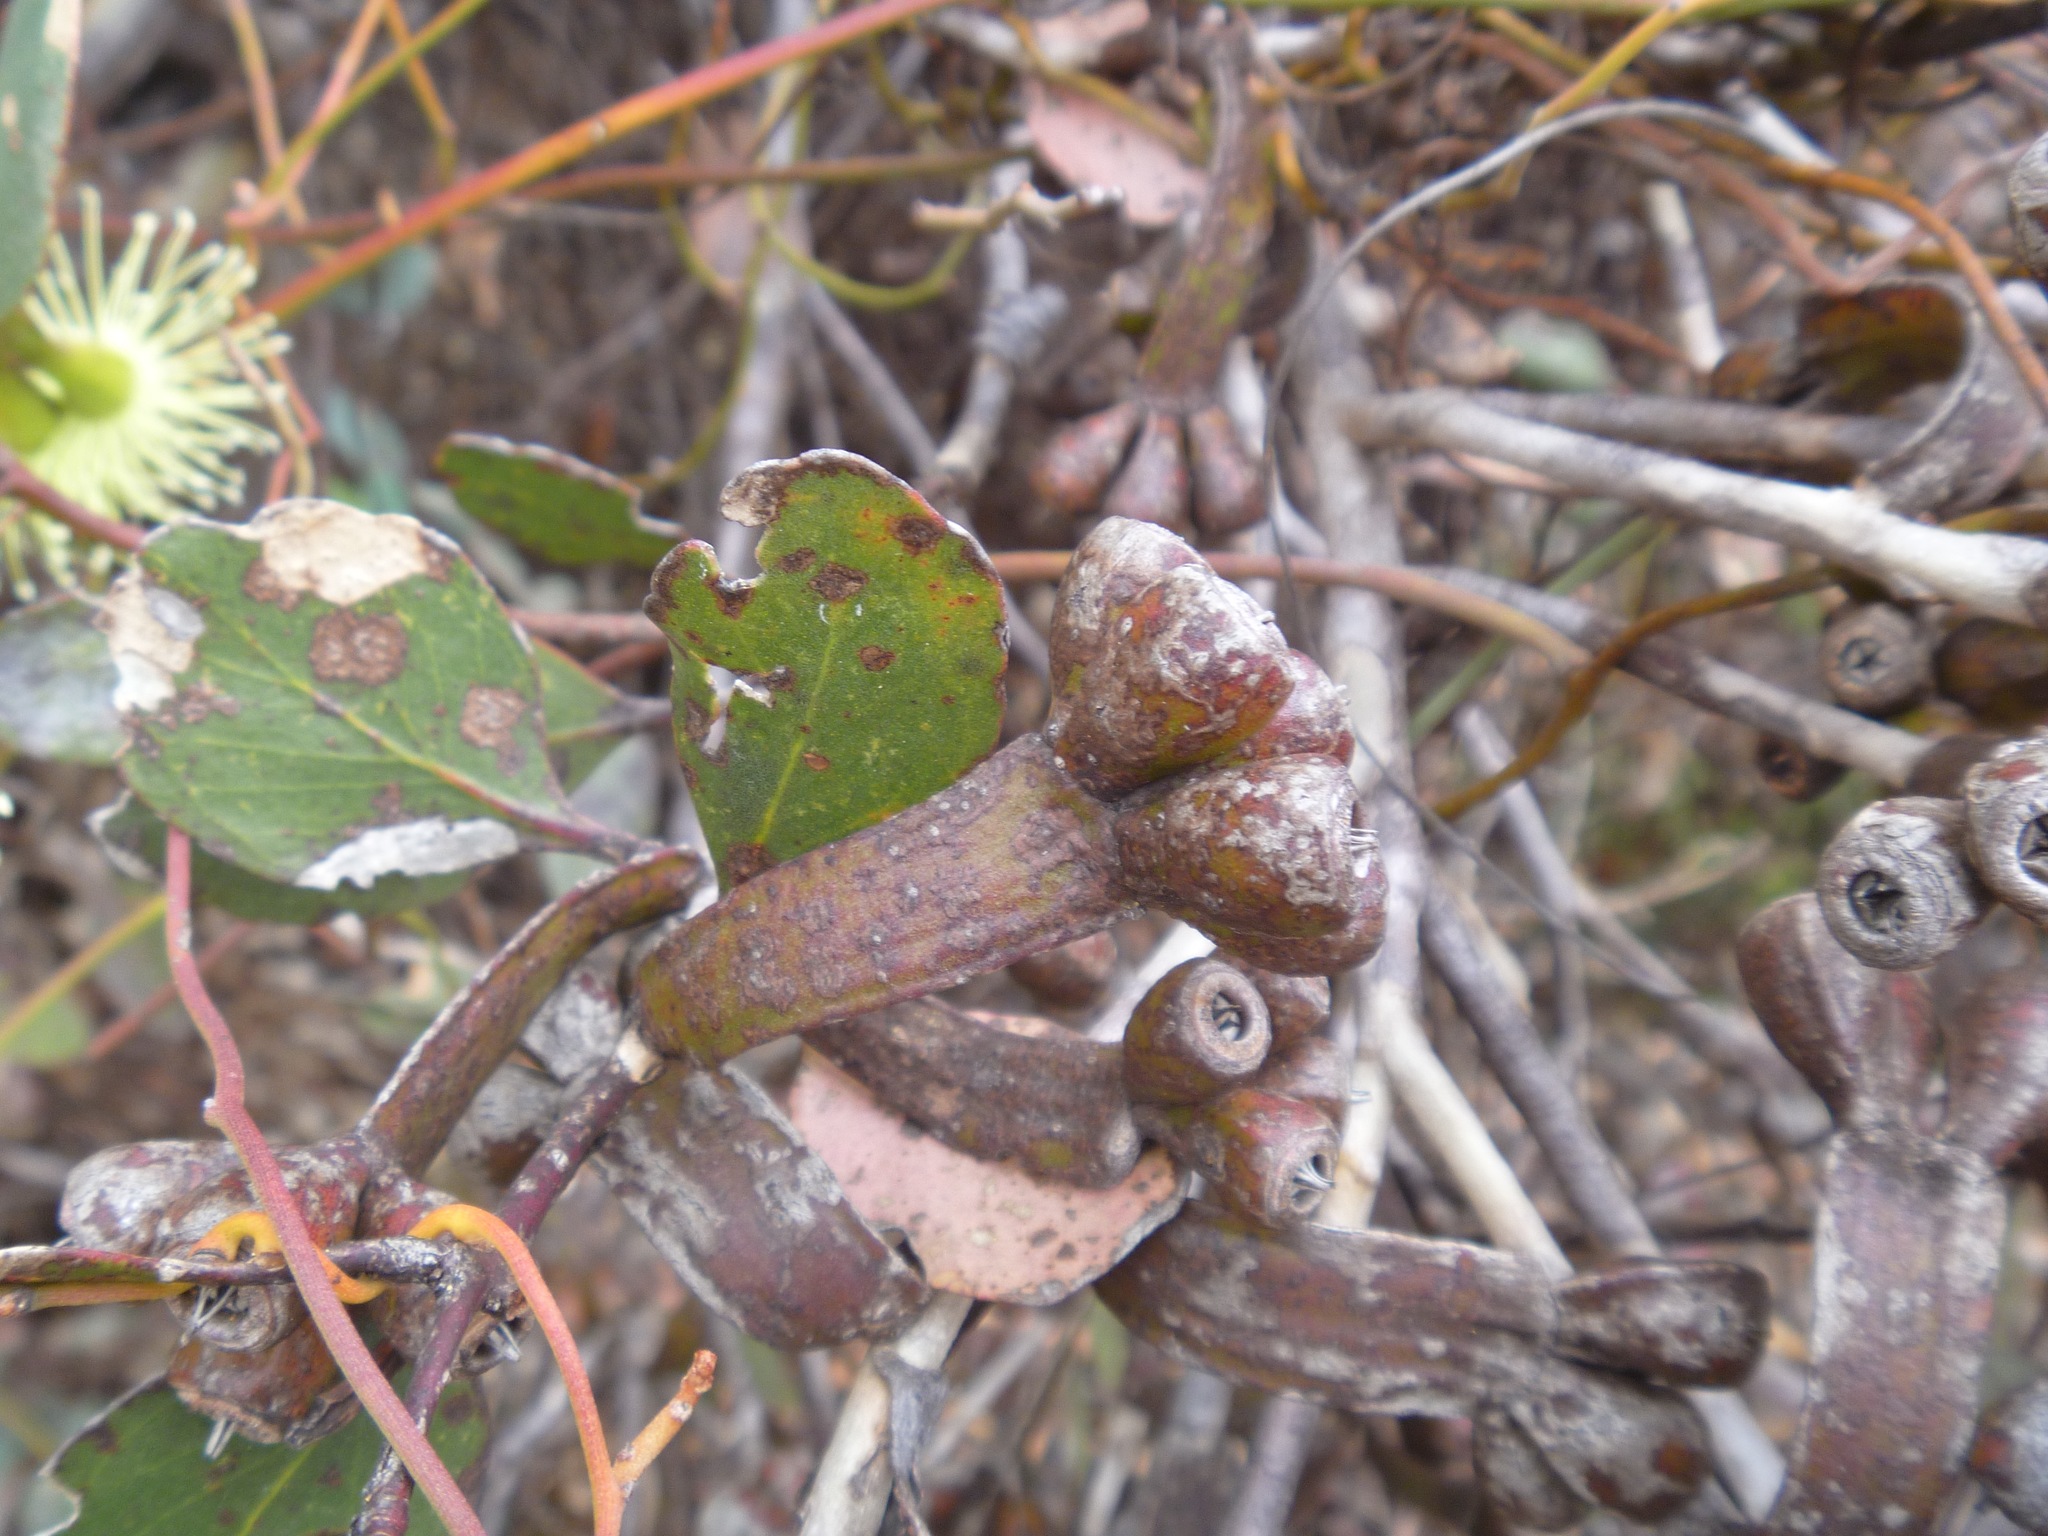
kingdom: Plantae
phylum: Tracheophyta
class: Magnoliopsida
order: Myrtales
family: Myrtaceae
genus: Eucalyptus
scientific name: Eucalyptus platypus
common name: Moort
